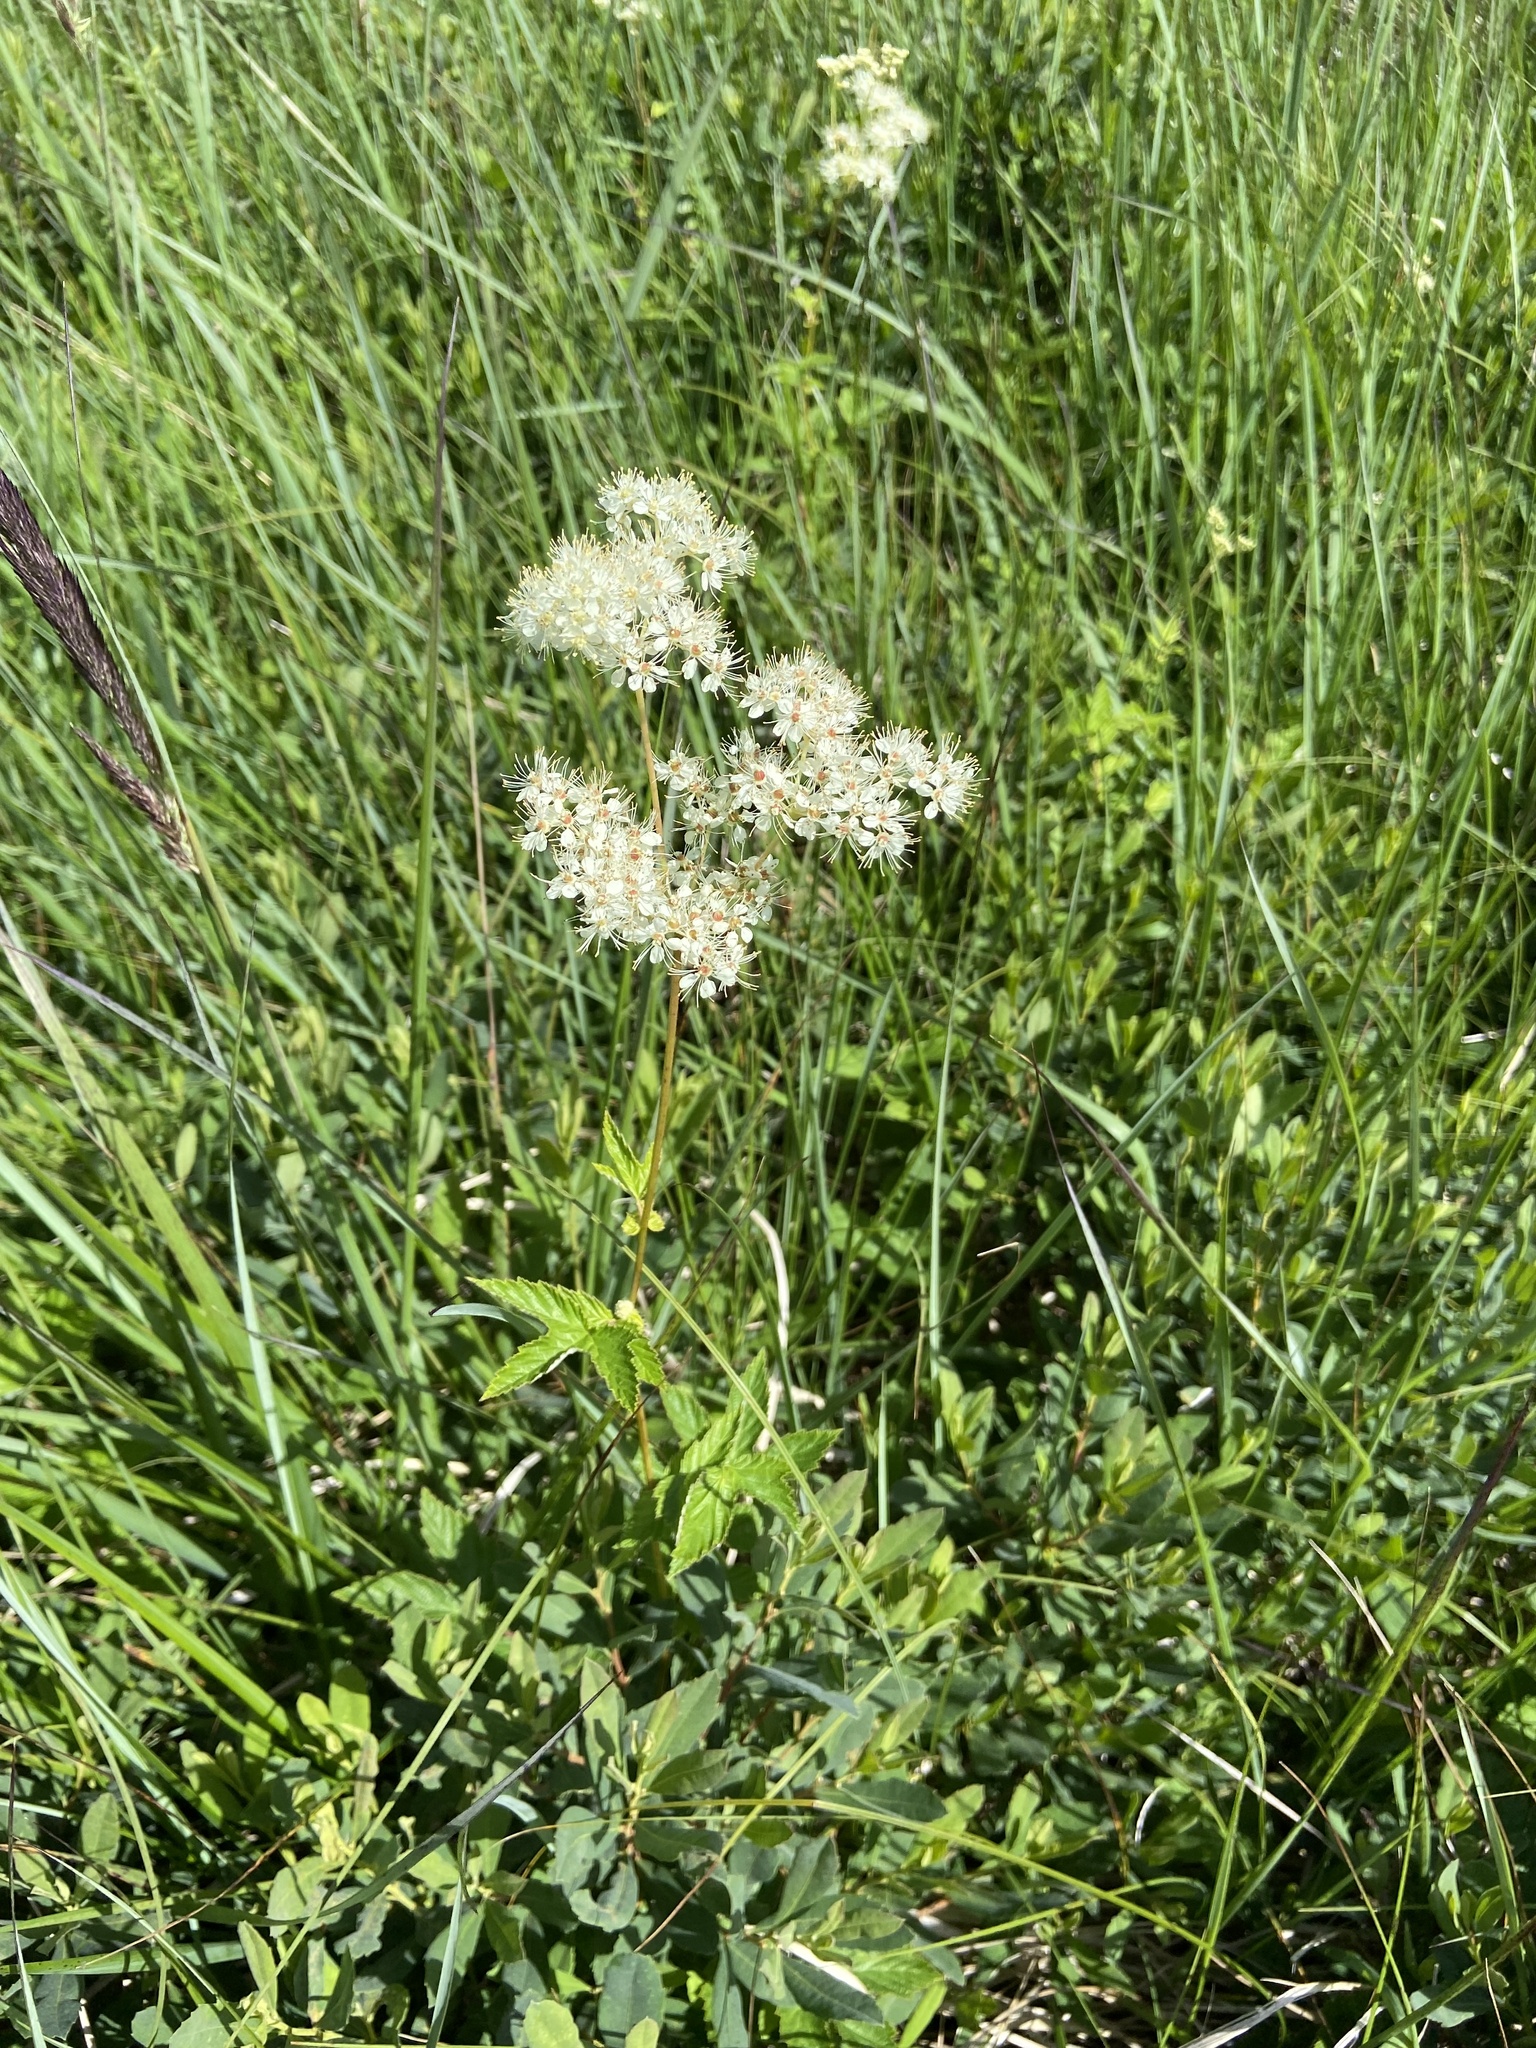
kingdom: Plantae
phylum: Tracheophyta
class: Magnoliopsida
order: Rosales
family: Rosaceae
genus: Filipendula
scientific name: Filipendula ulmaria
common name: Meadowsweet
